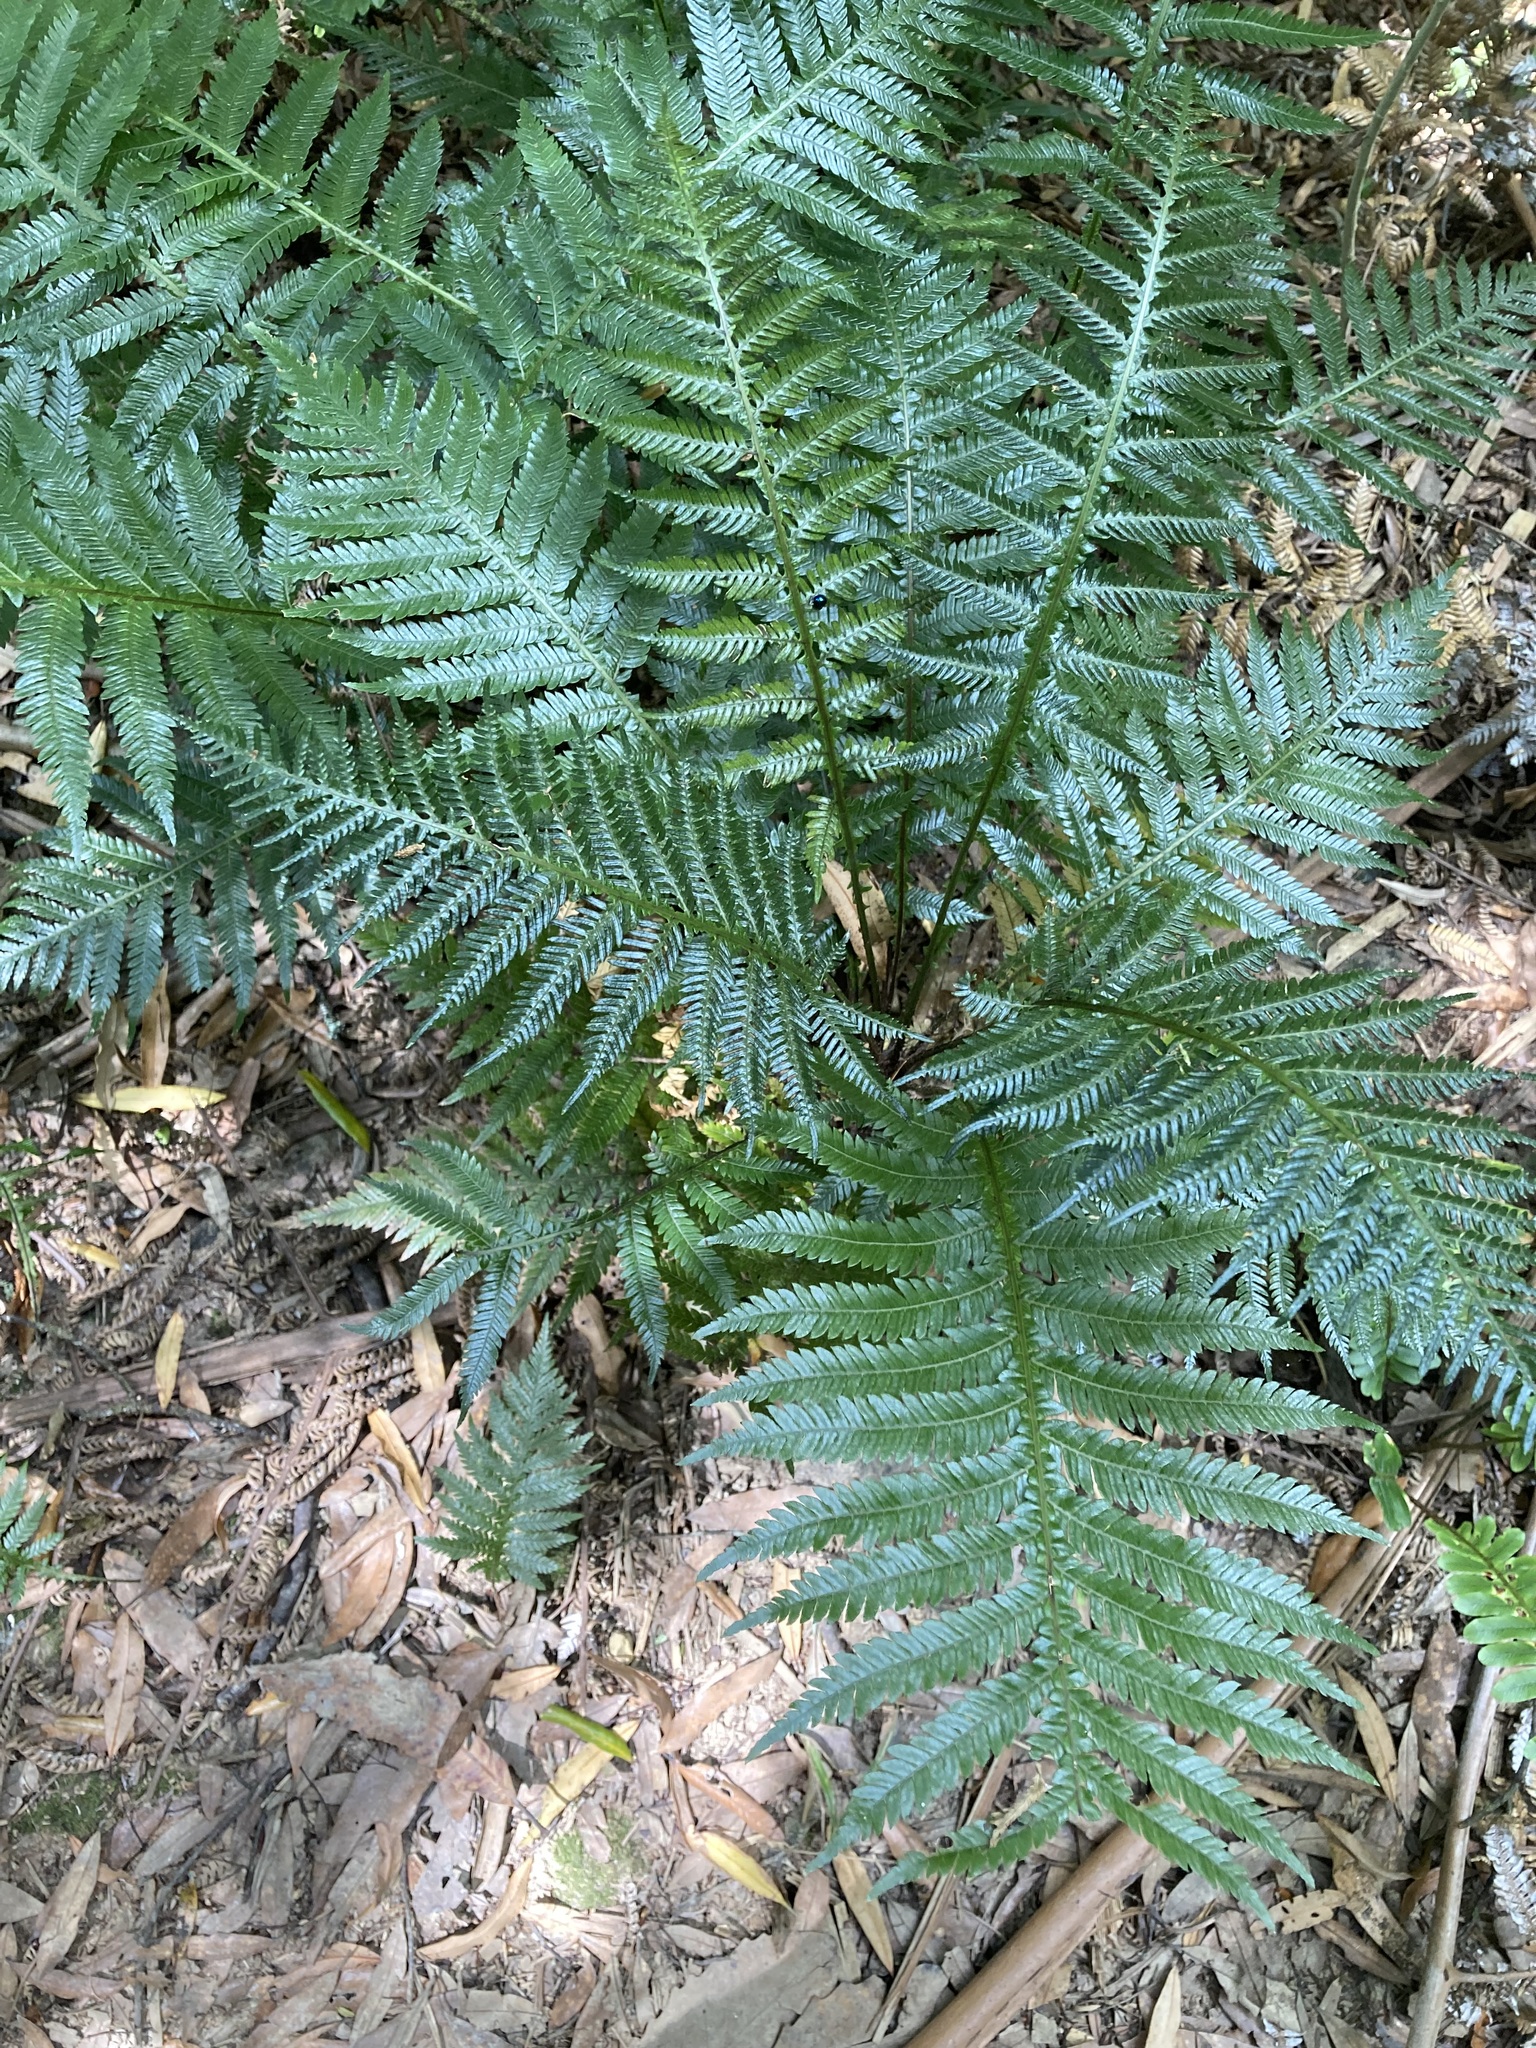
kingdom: Plantae
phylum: Tracheophyta
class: Polypodiopsida
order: Polypodiales
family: Blechnaceae
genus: Diploblechnum
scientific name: Diploblechnum fraseri
